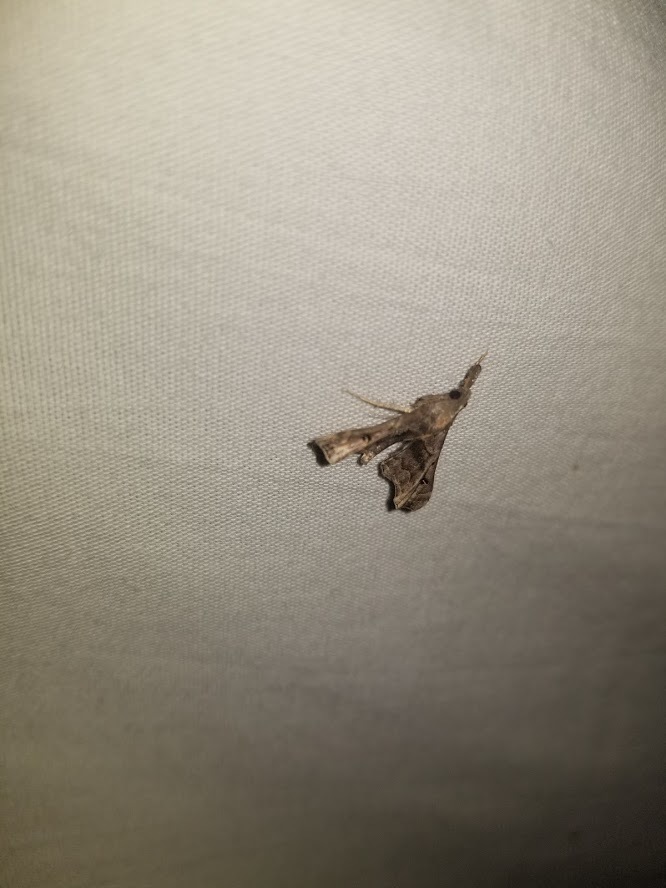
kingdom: Animalia
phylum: Arthropoda
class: Insecta
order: Lepidoptera
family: Erebidae
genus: Palthis
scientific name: Palthis asopialis
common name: Faint-spotted palthis moth
